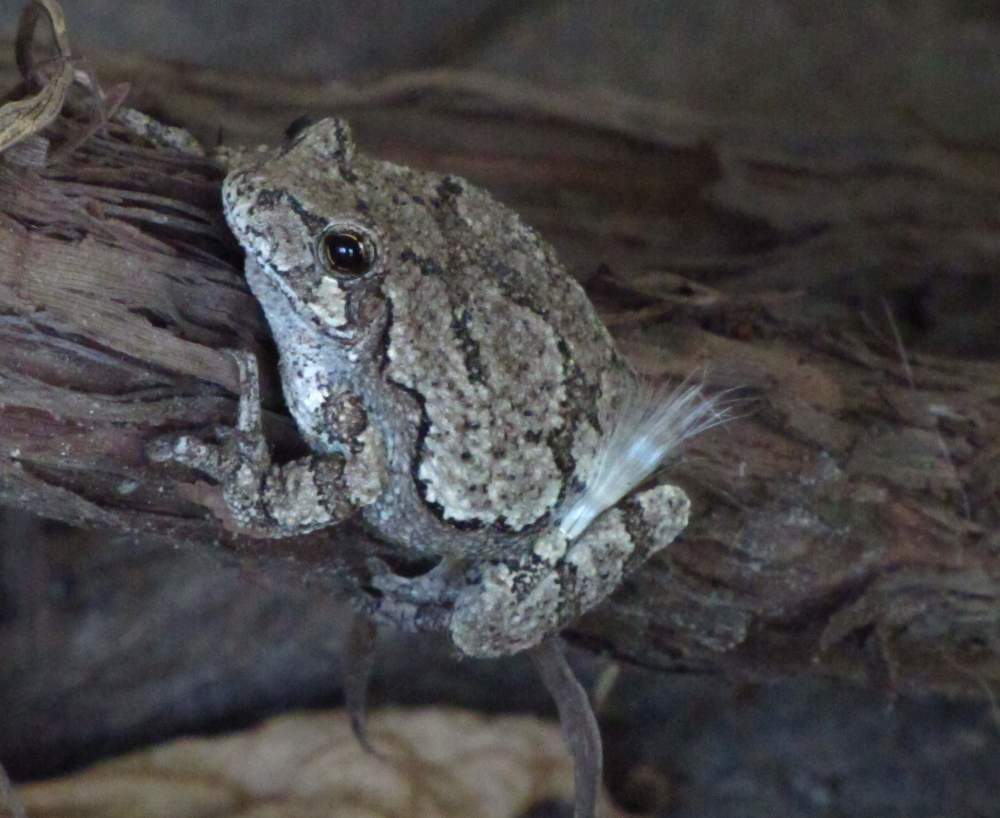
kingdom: Animalia
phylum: Chordata
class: Amphibia
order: Anura
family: Hylidae
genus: Dryophytes
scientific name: Dryophytes versicolor
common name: Gray treefrog
